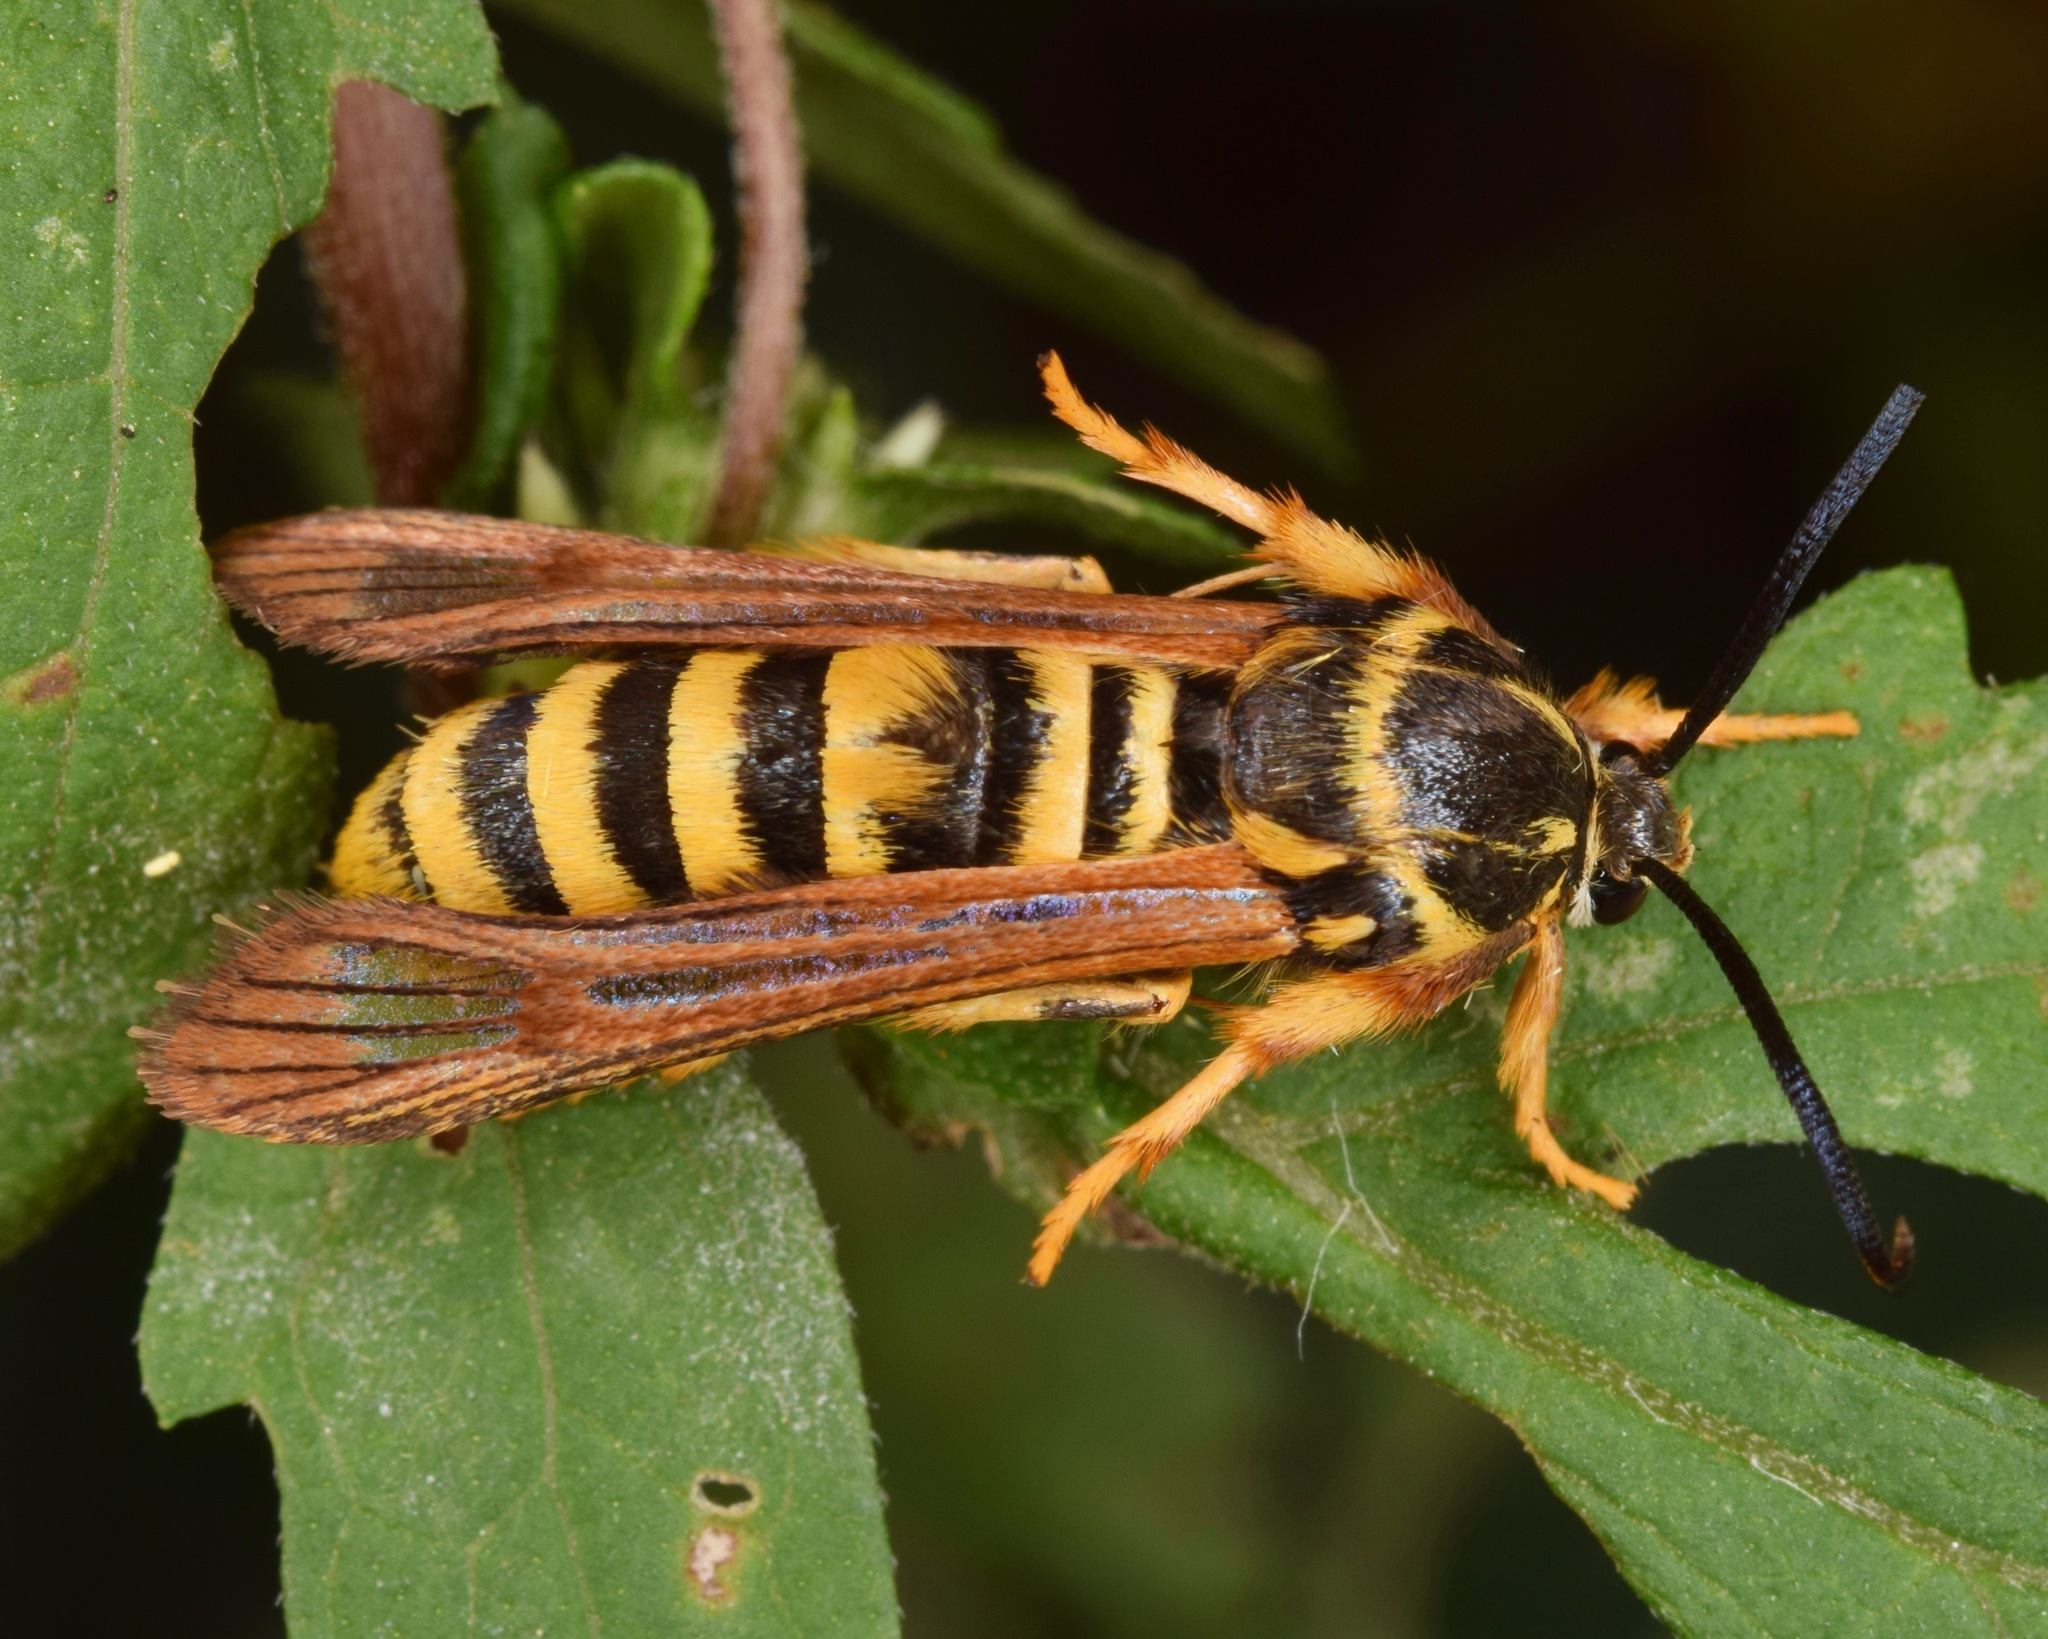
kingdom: Animalia
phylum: Arthropoda
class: Insecta
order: Lepidoptera
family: Sesiidae
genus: Pennisetia
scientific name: Pennisetia marginatum
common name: Raspberry crown borer
